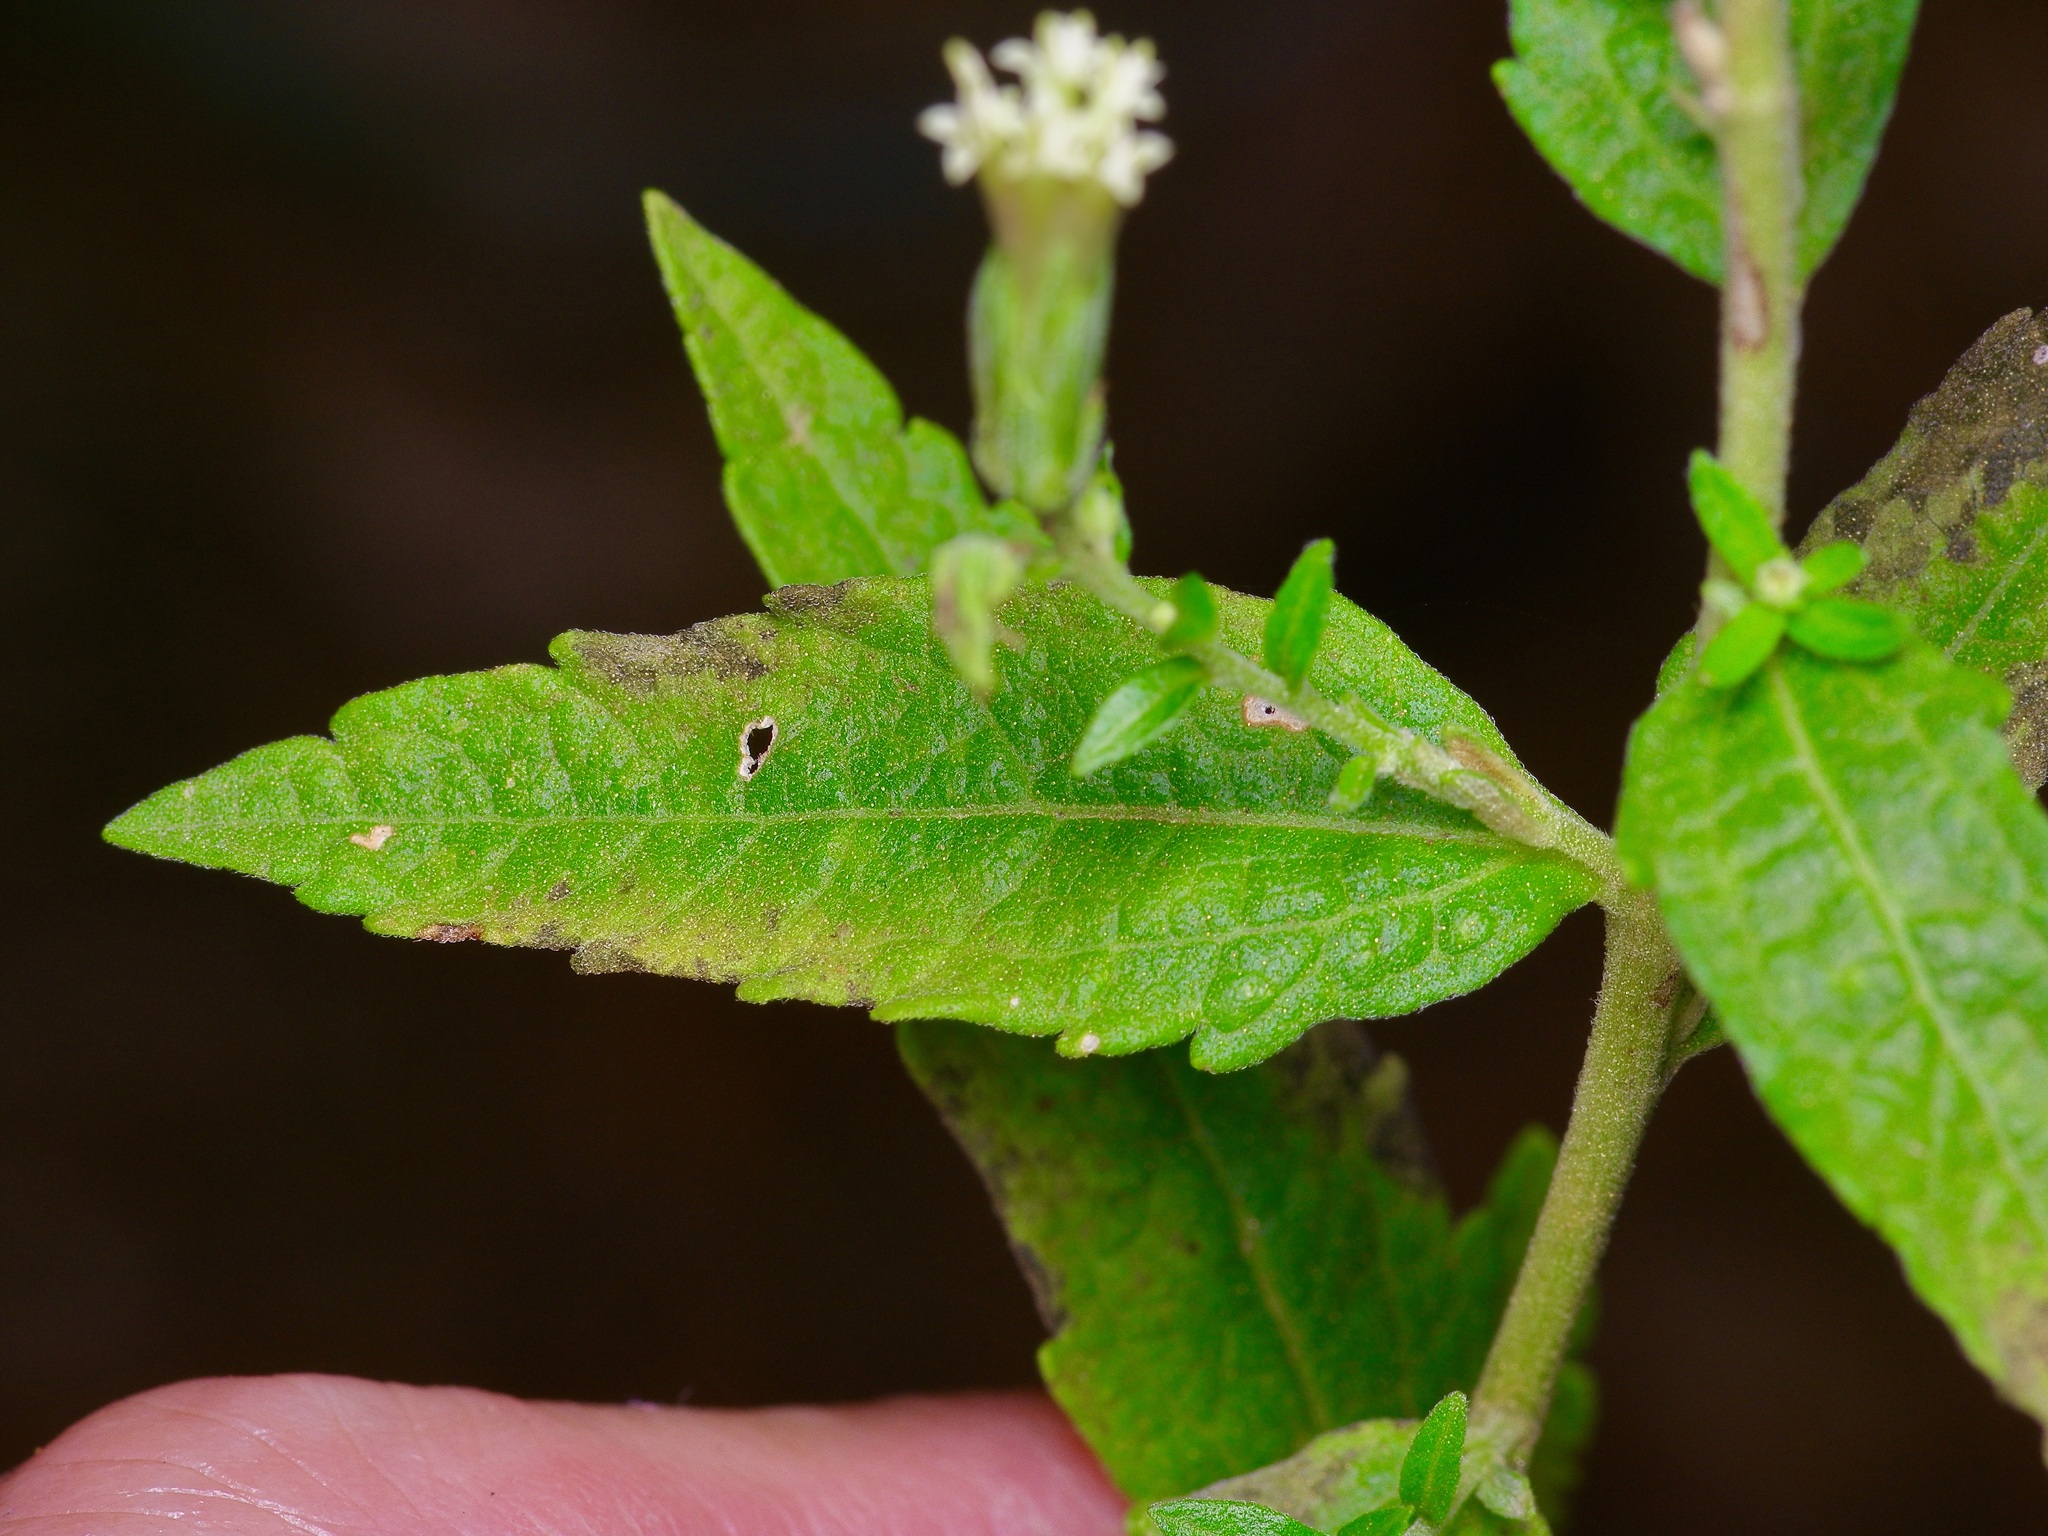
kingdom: Plantae
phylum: Tracheophyta
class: Magnoliopsida
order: Asterales
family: Asteraceae
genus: Brickellia
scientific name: Brickellia eupatorioides
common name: False boneset
